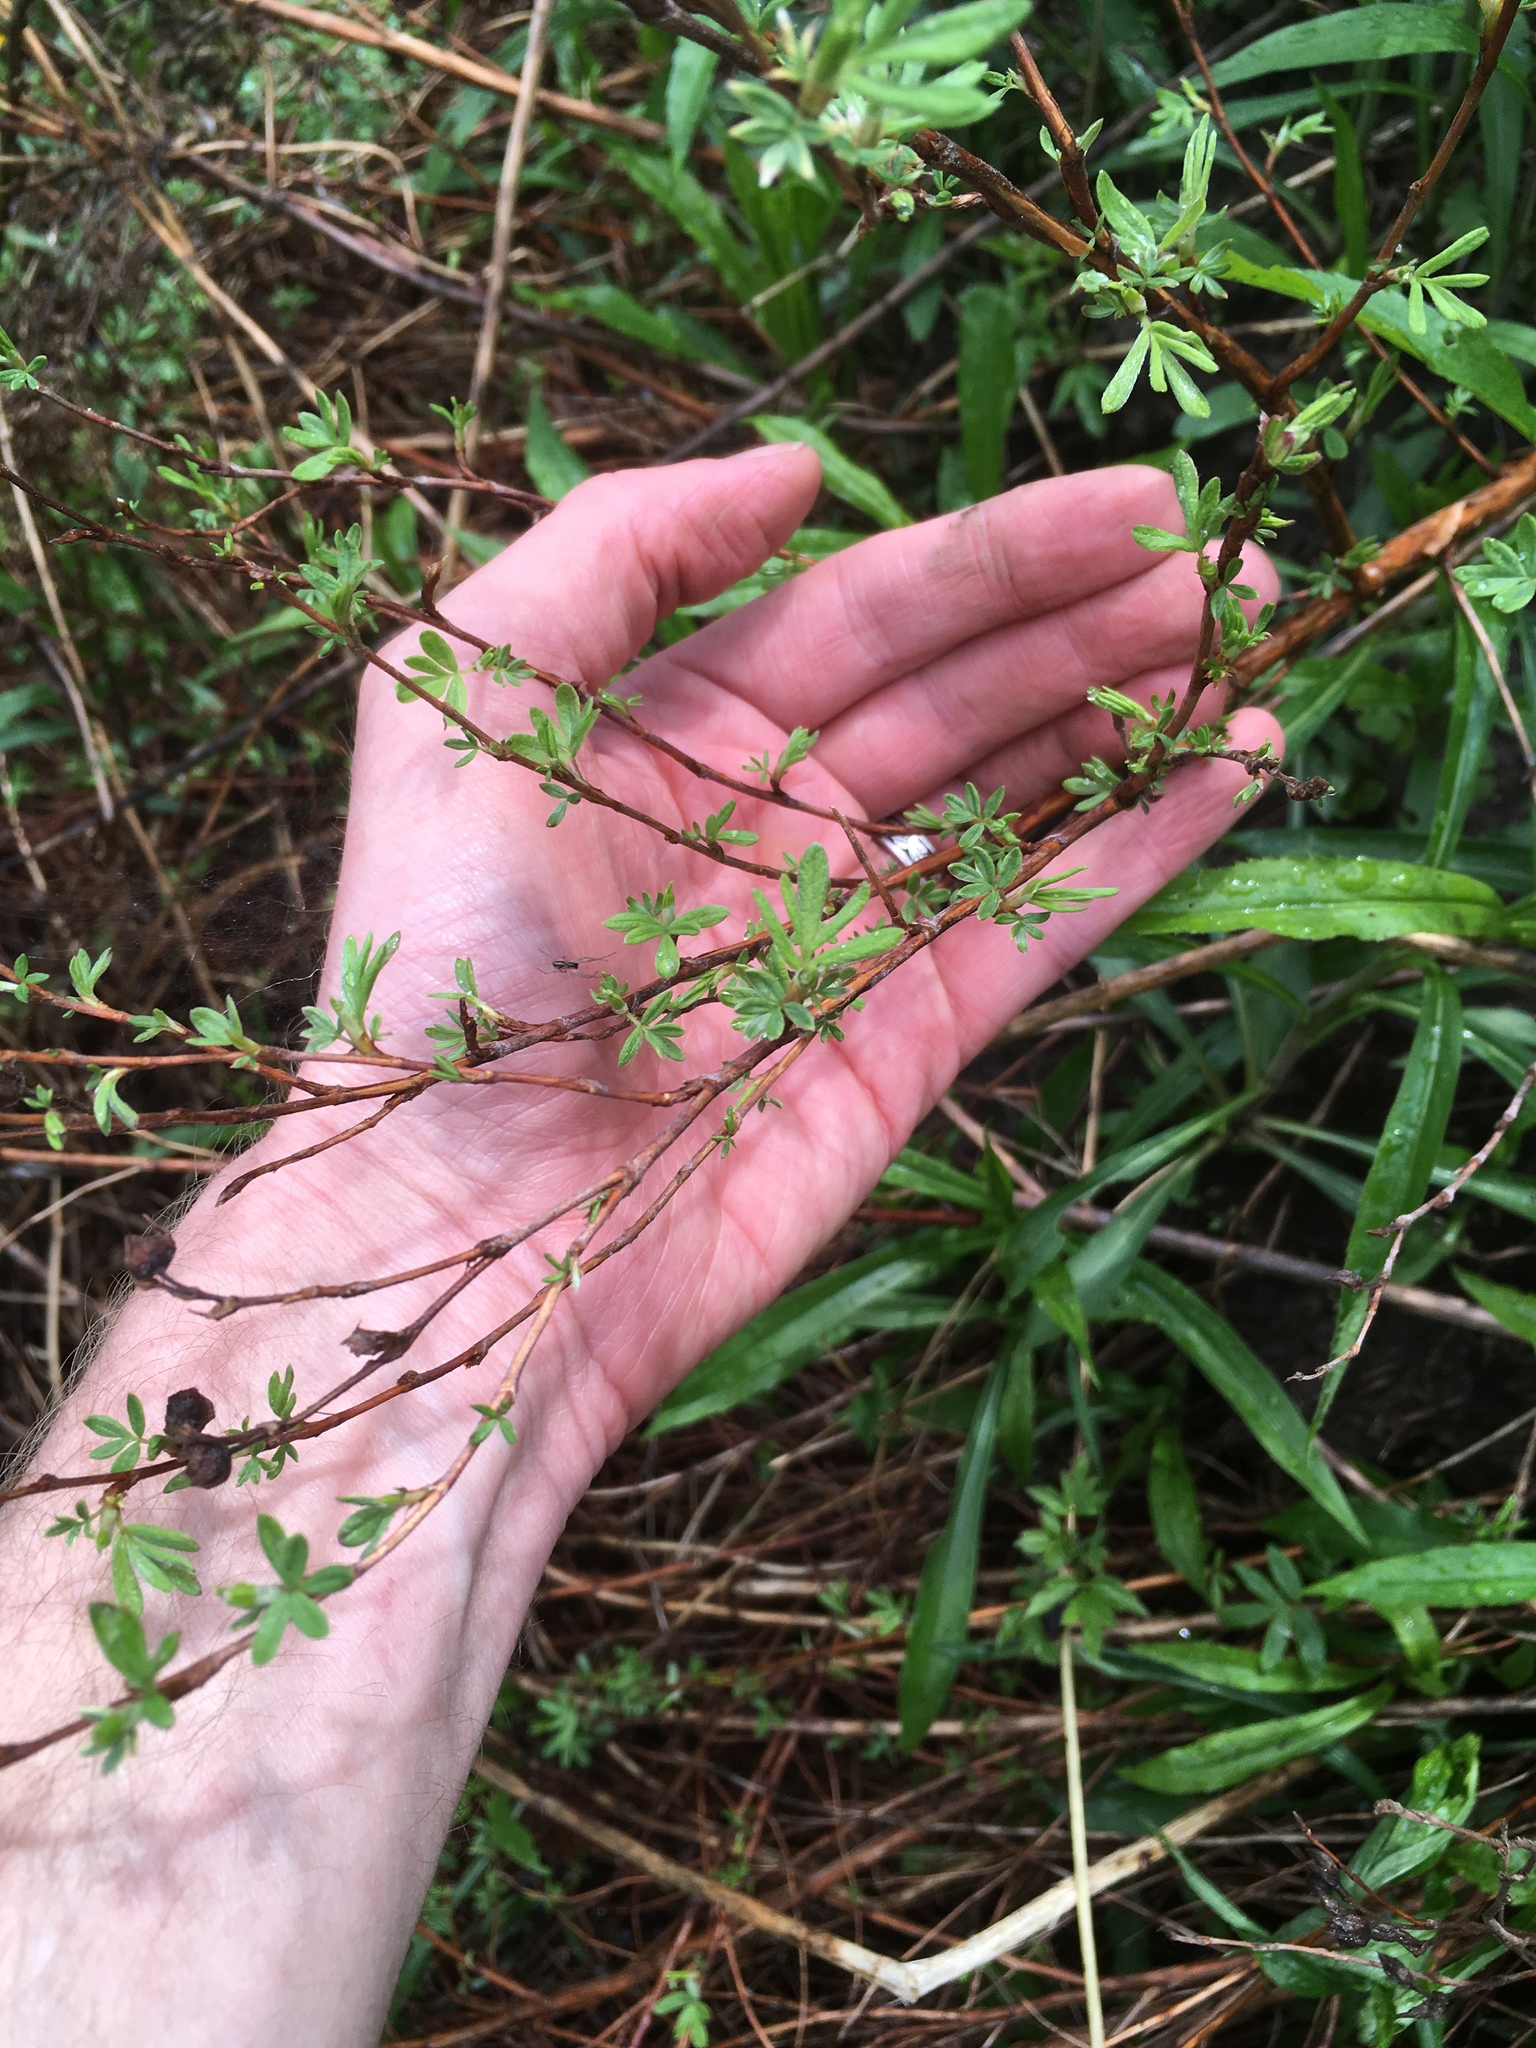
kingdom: Plantae
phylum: Tracheophyta
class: Magnoliopsida
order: Rosales
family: Rosaceae
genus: Dasiphora
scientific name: Dasiphora fruticosa
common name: Shrubby cinquefoil
